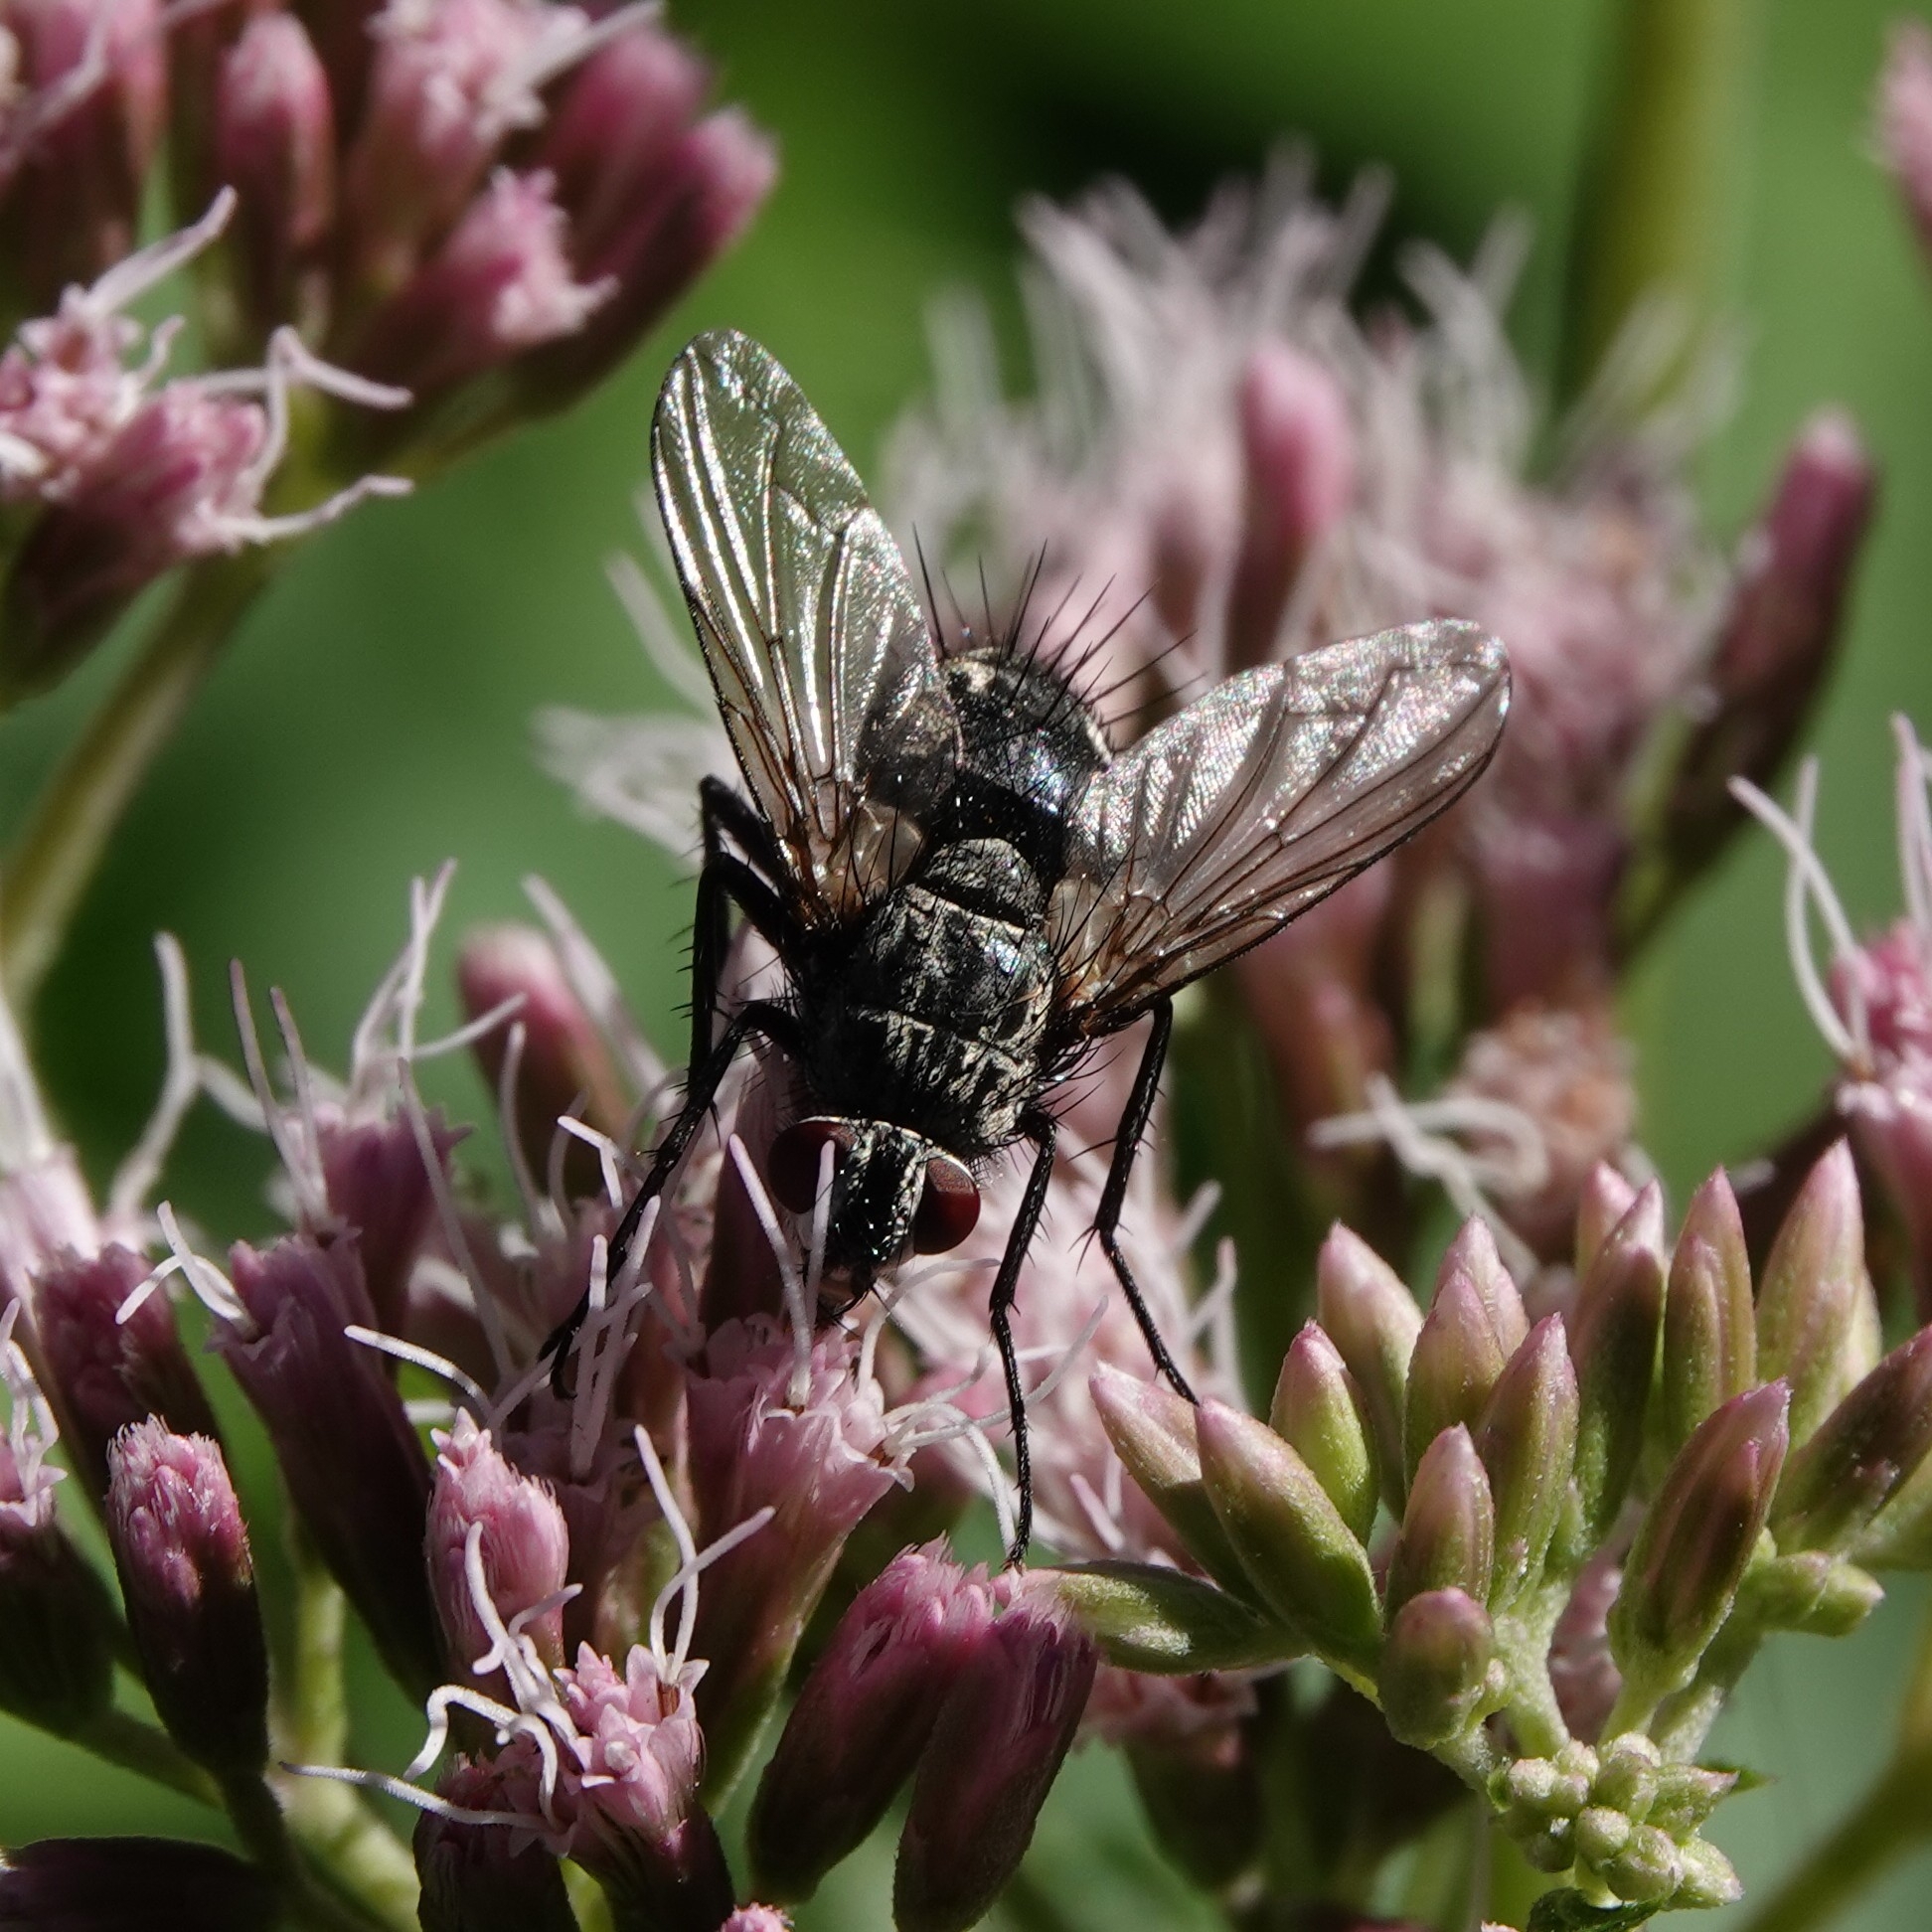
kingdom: Animalia
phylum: Arthropoda
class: Insecta
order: Diptera
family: Tachinidae
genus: Dinera
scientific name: Dinera ferina
